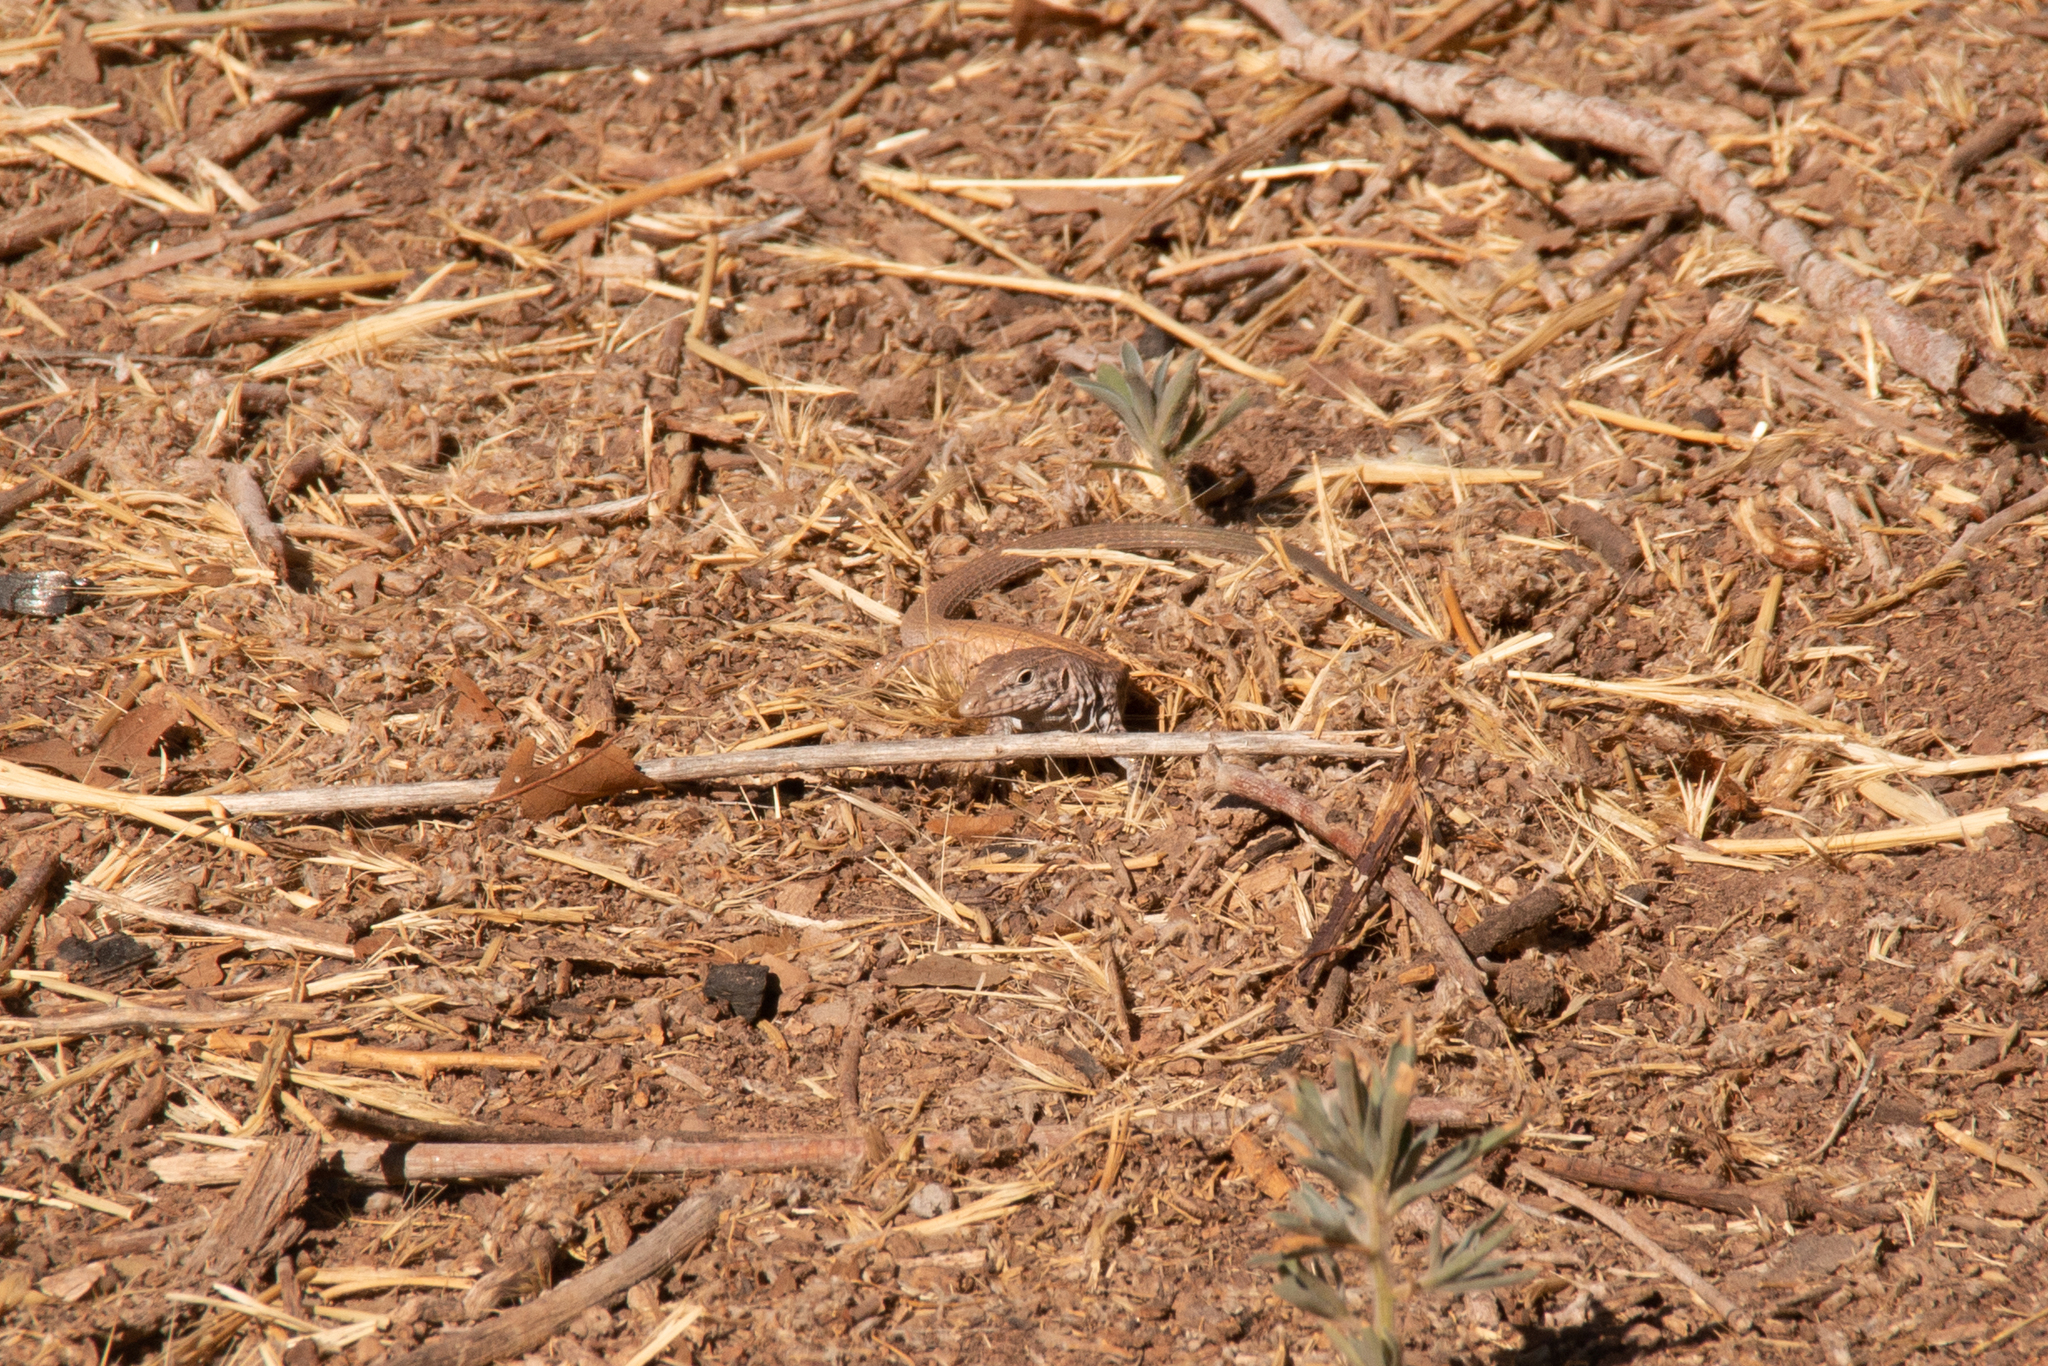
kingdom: Animalia
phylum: Chordata
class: Squamata
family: Teiidae
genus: Aspidoscelis
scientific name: Aspidoscelis tigris
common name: Tiger whiptail
